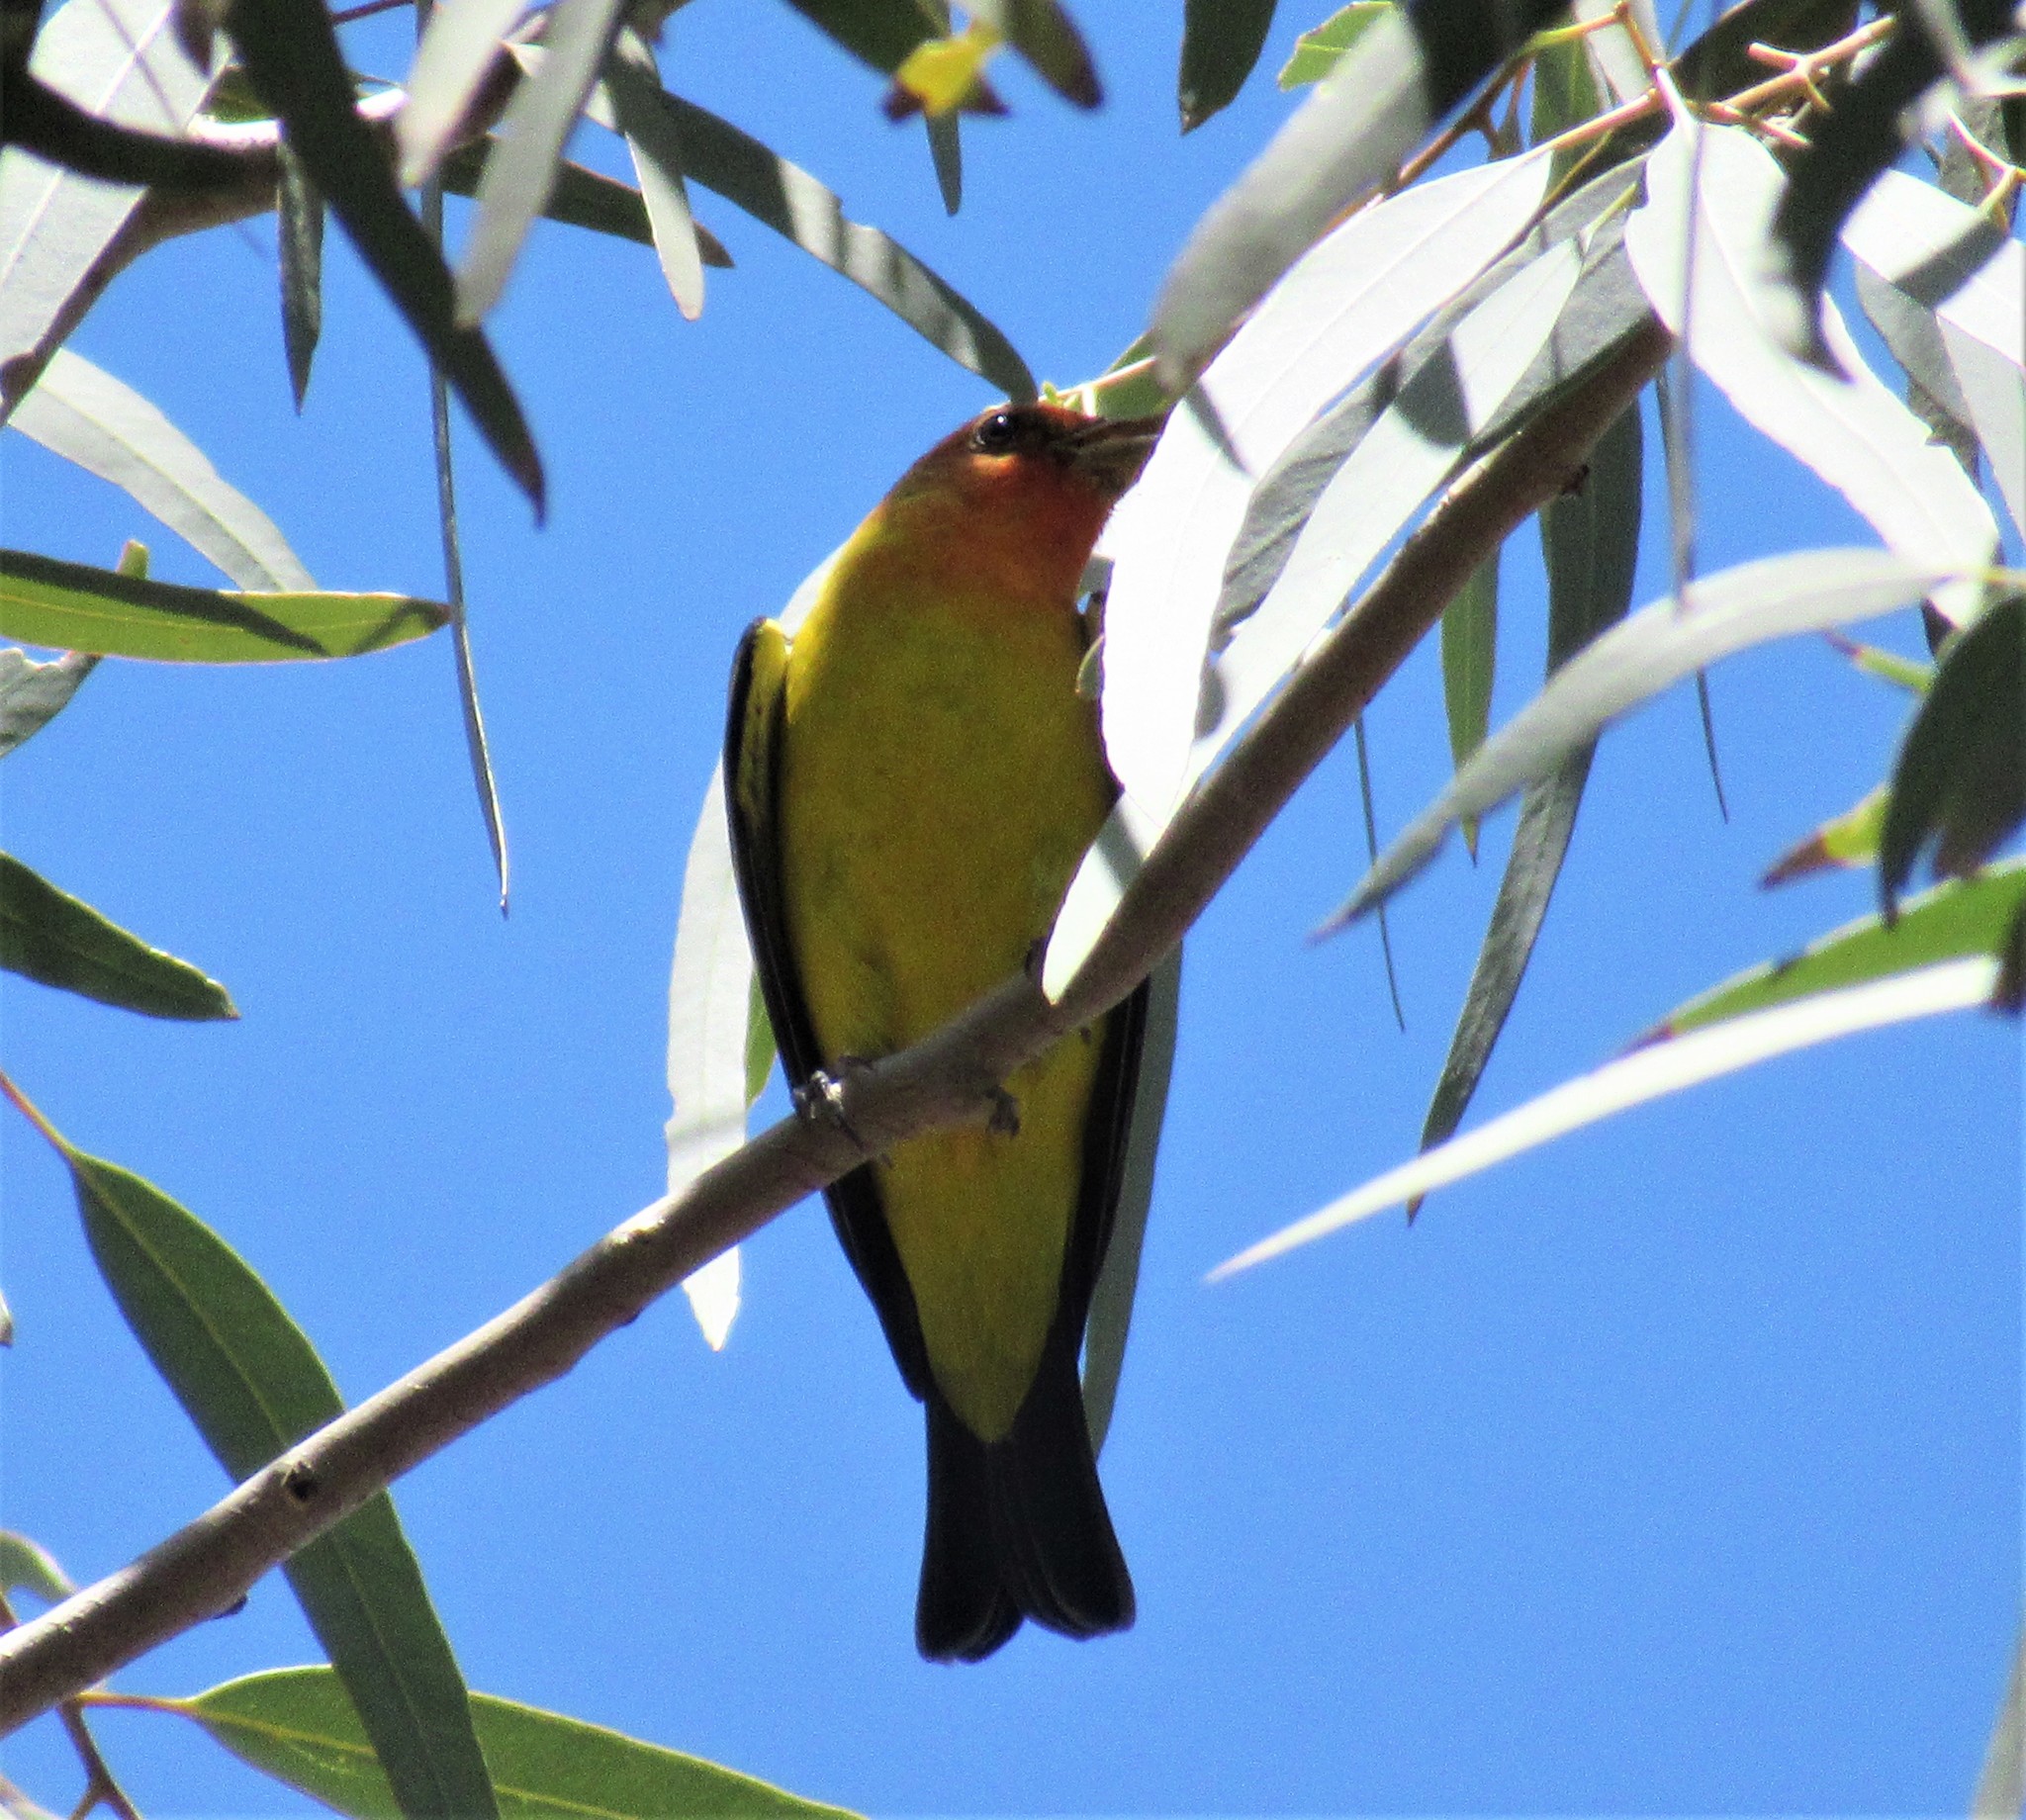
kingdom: Animalia
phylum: Chordata
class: Aves
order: Passeriformes
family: Cardinalidae
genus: Piranga
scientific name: Piranga ludoviciana
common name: Western tanager
